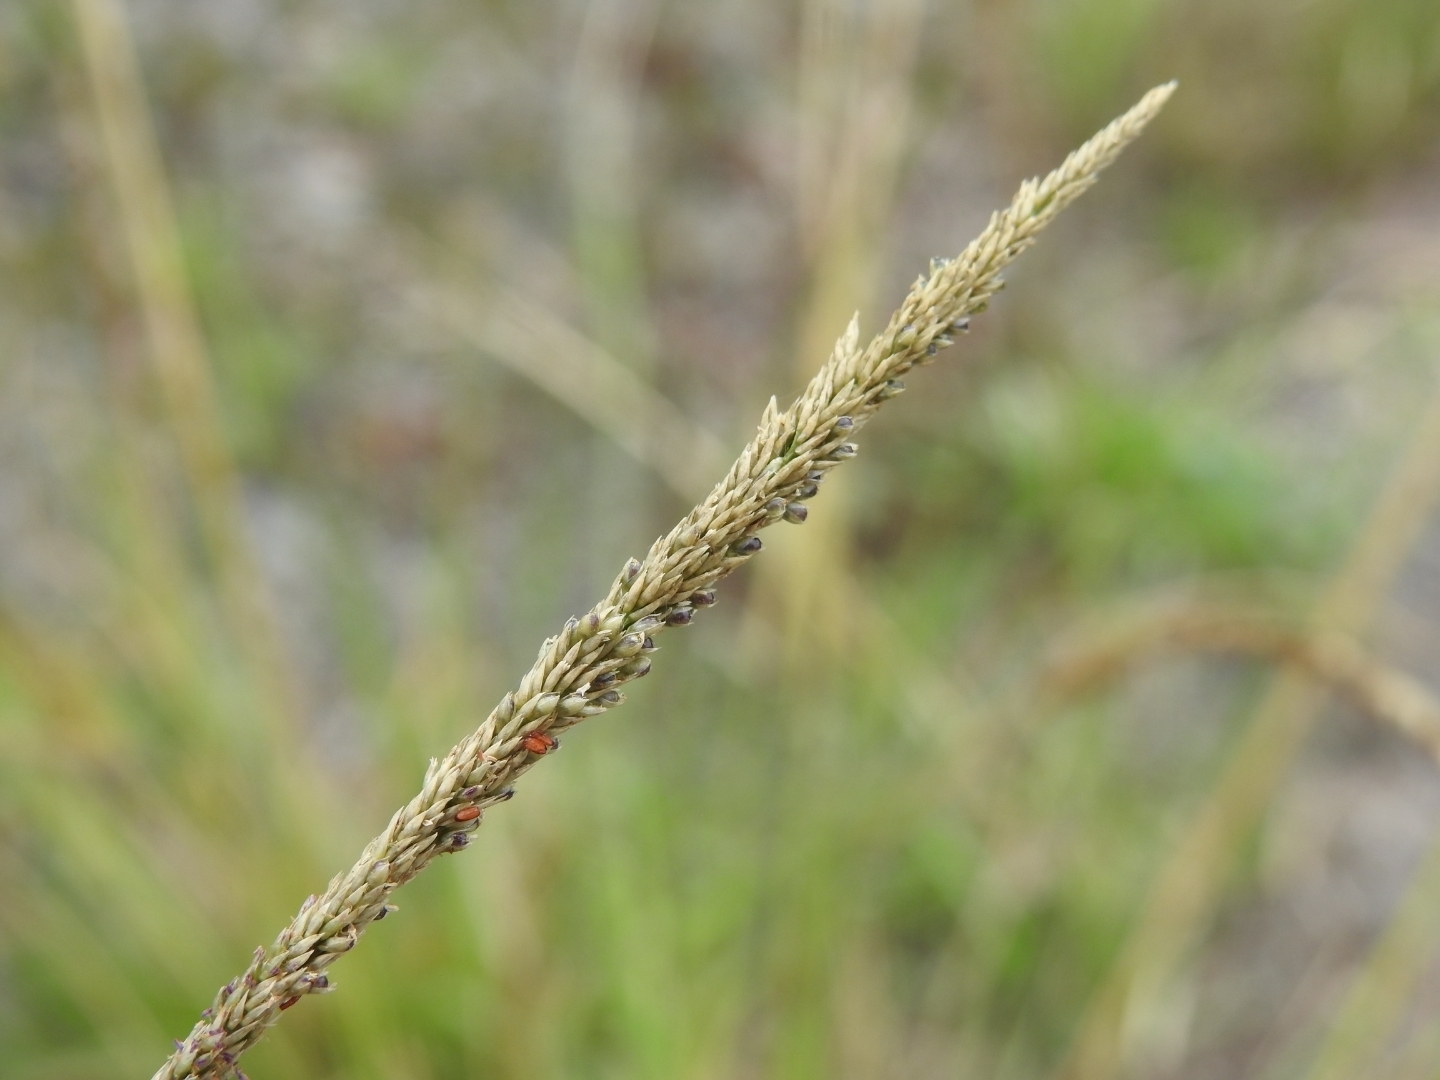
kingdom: Plantae
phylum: Tracheophyta
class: Liliopsida
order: Poales
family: Poaceae
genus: Sporobolus
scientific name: Sporobolus indicus
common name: Smut grass
